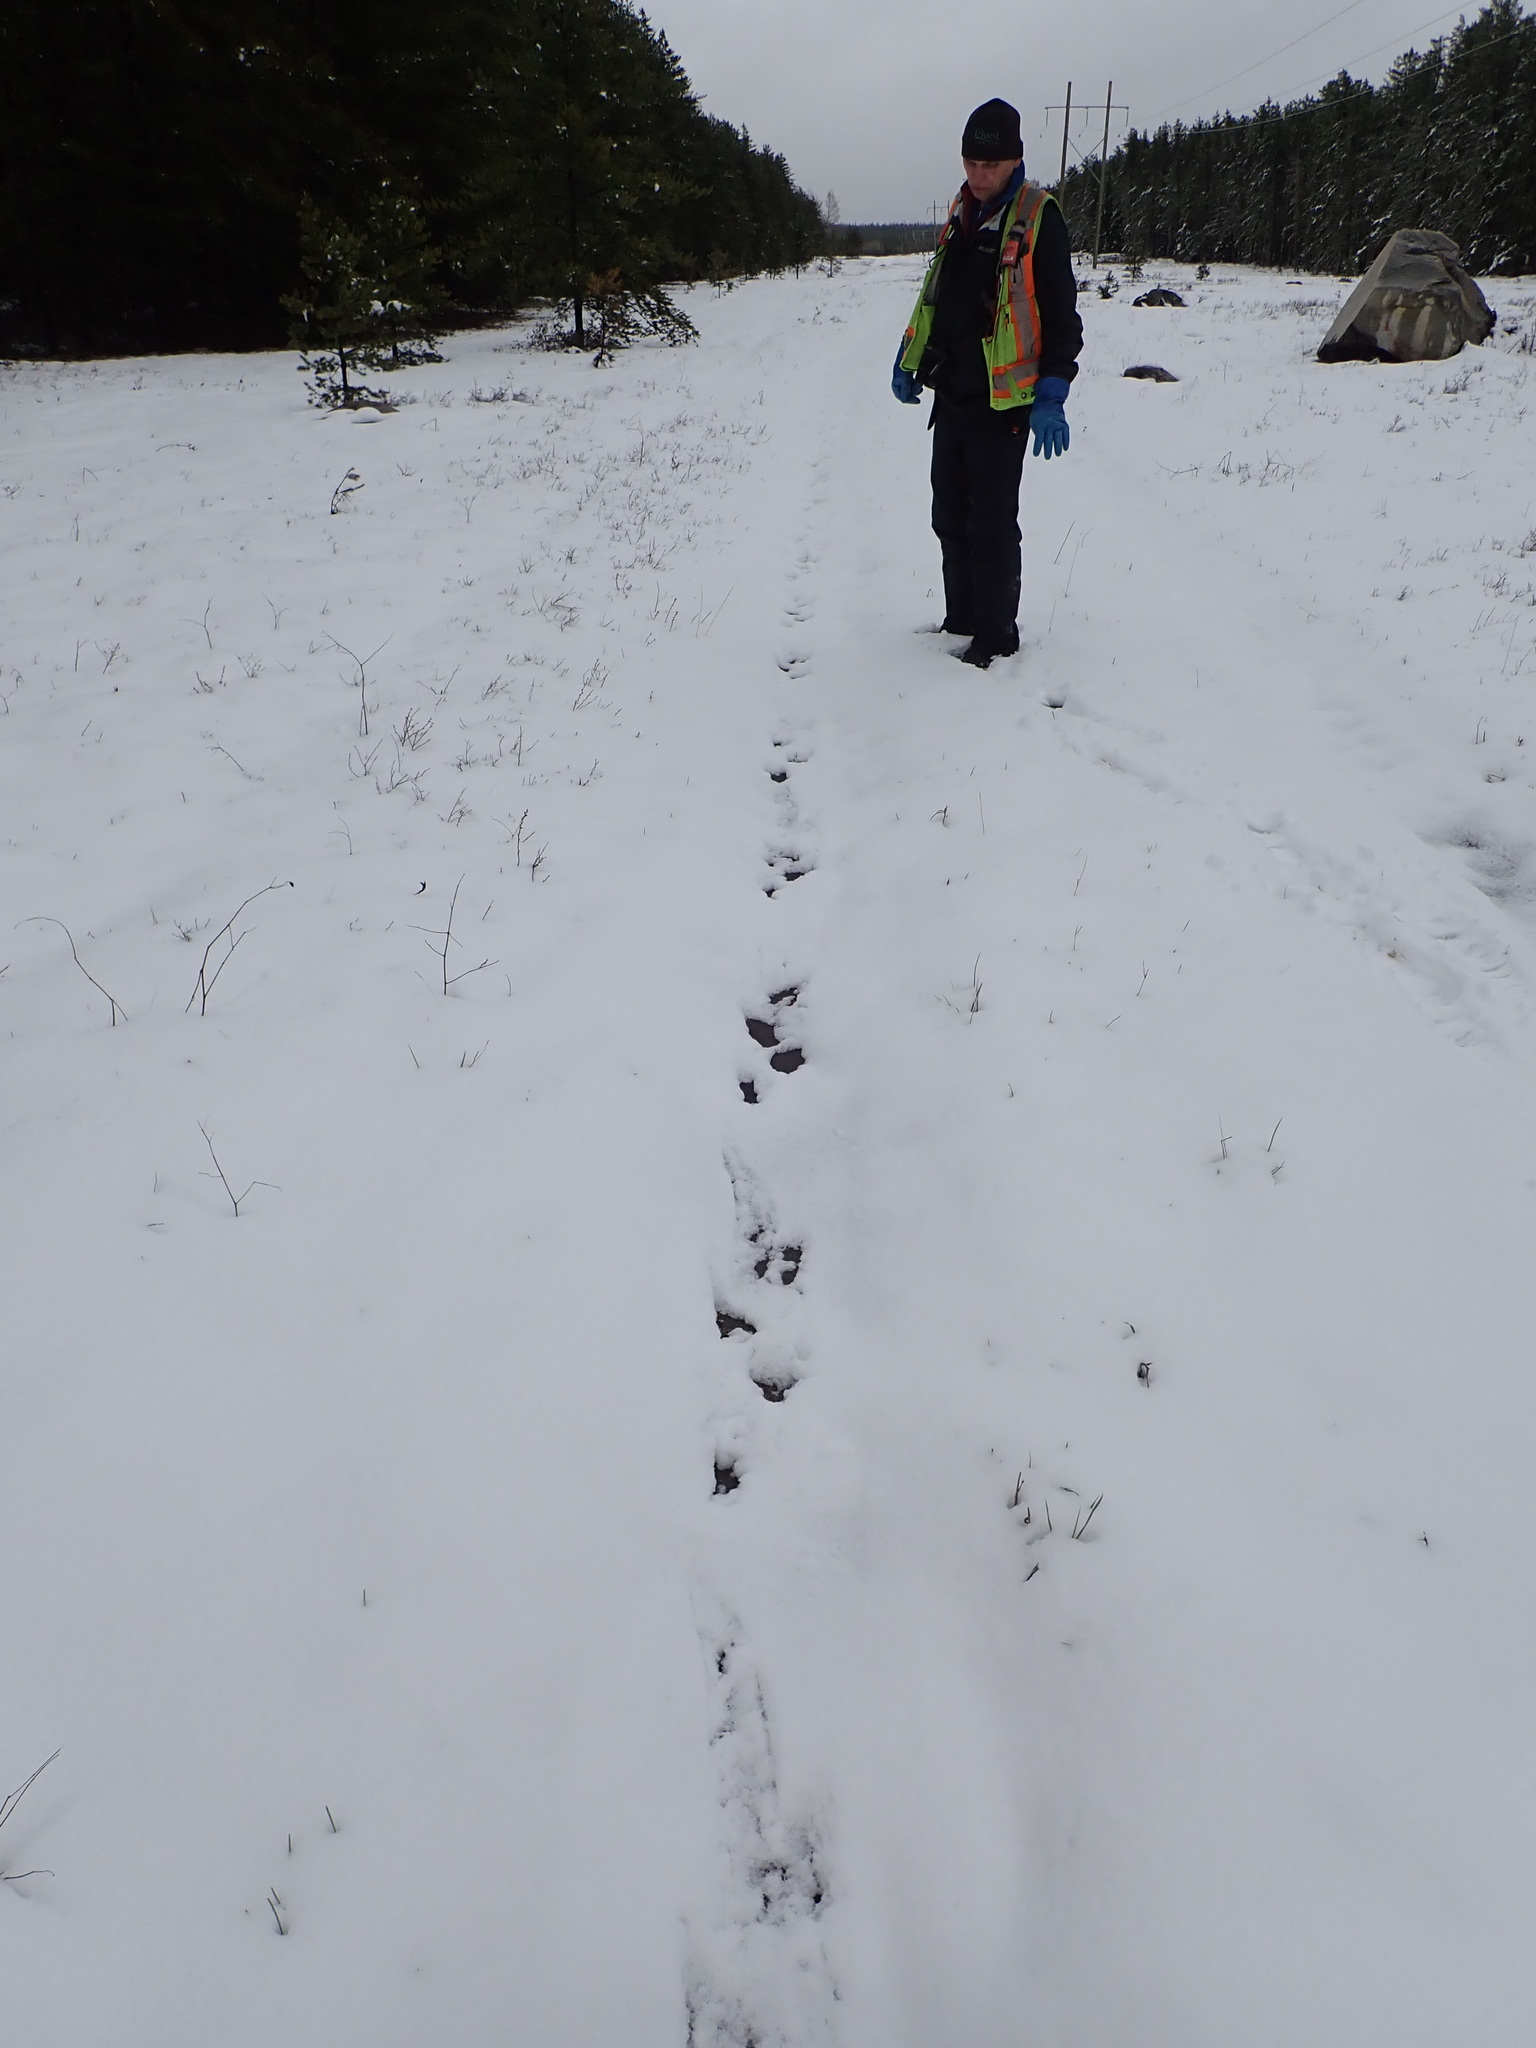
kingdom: Animalia
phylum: Chordata
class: Mammalia
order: Carnivora
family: Mustelidae
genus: Lontra
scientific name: Lontra canadensis
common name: North american river otter
